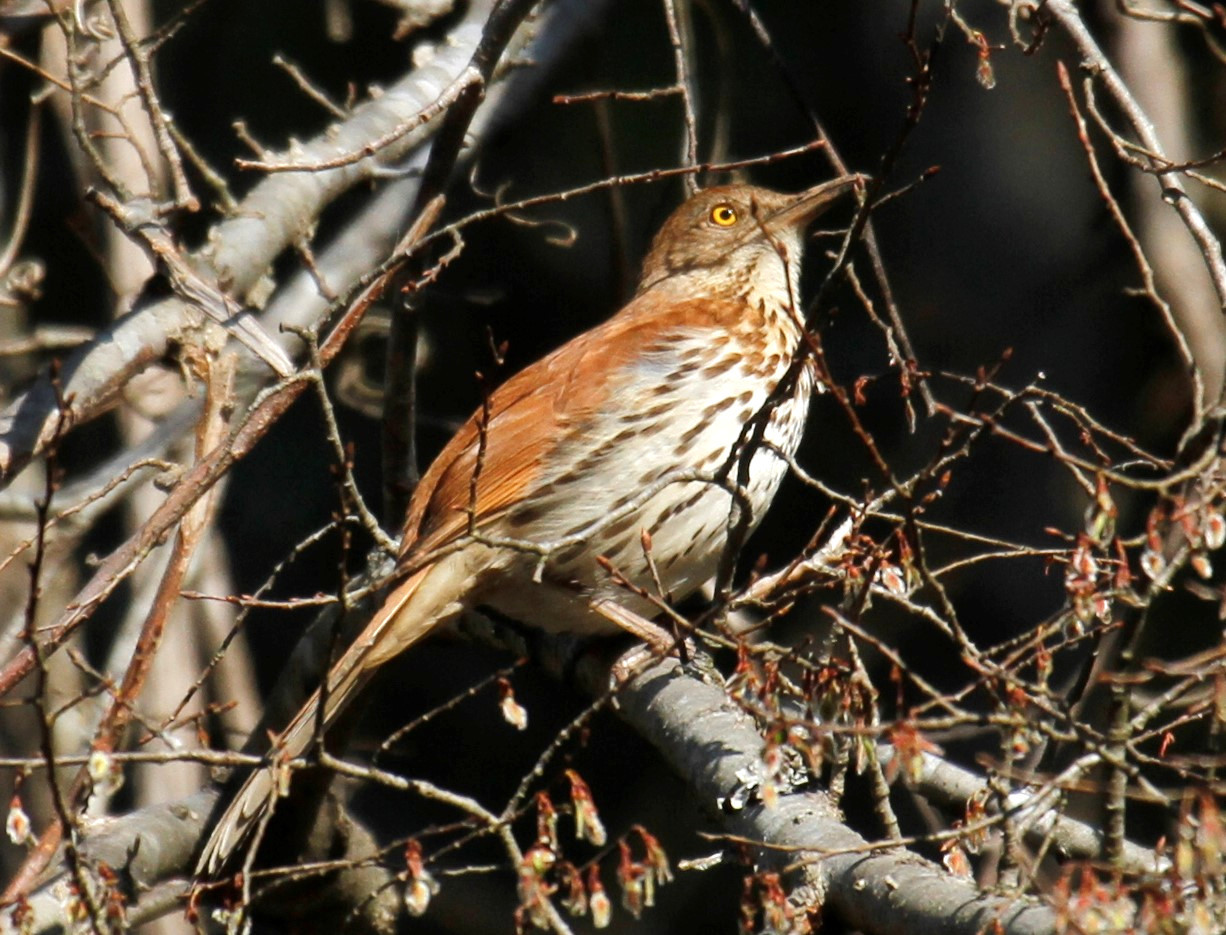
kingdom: Animalia
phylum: Chordata
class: Aves
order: Passeriformes
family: Mimidae
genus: Toxostoma
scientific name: Toxostoma rufum
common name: Brown thrasher
